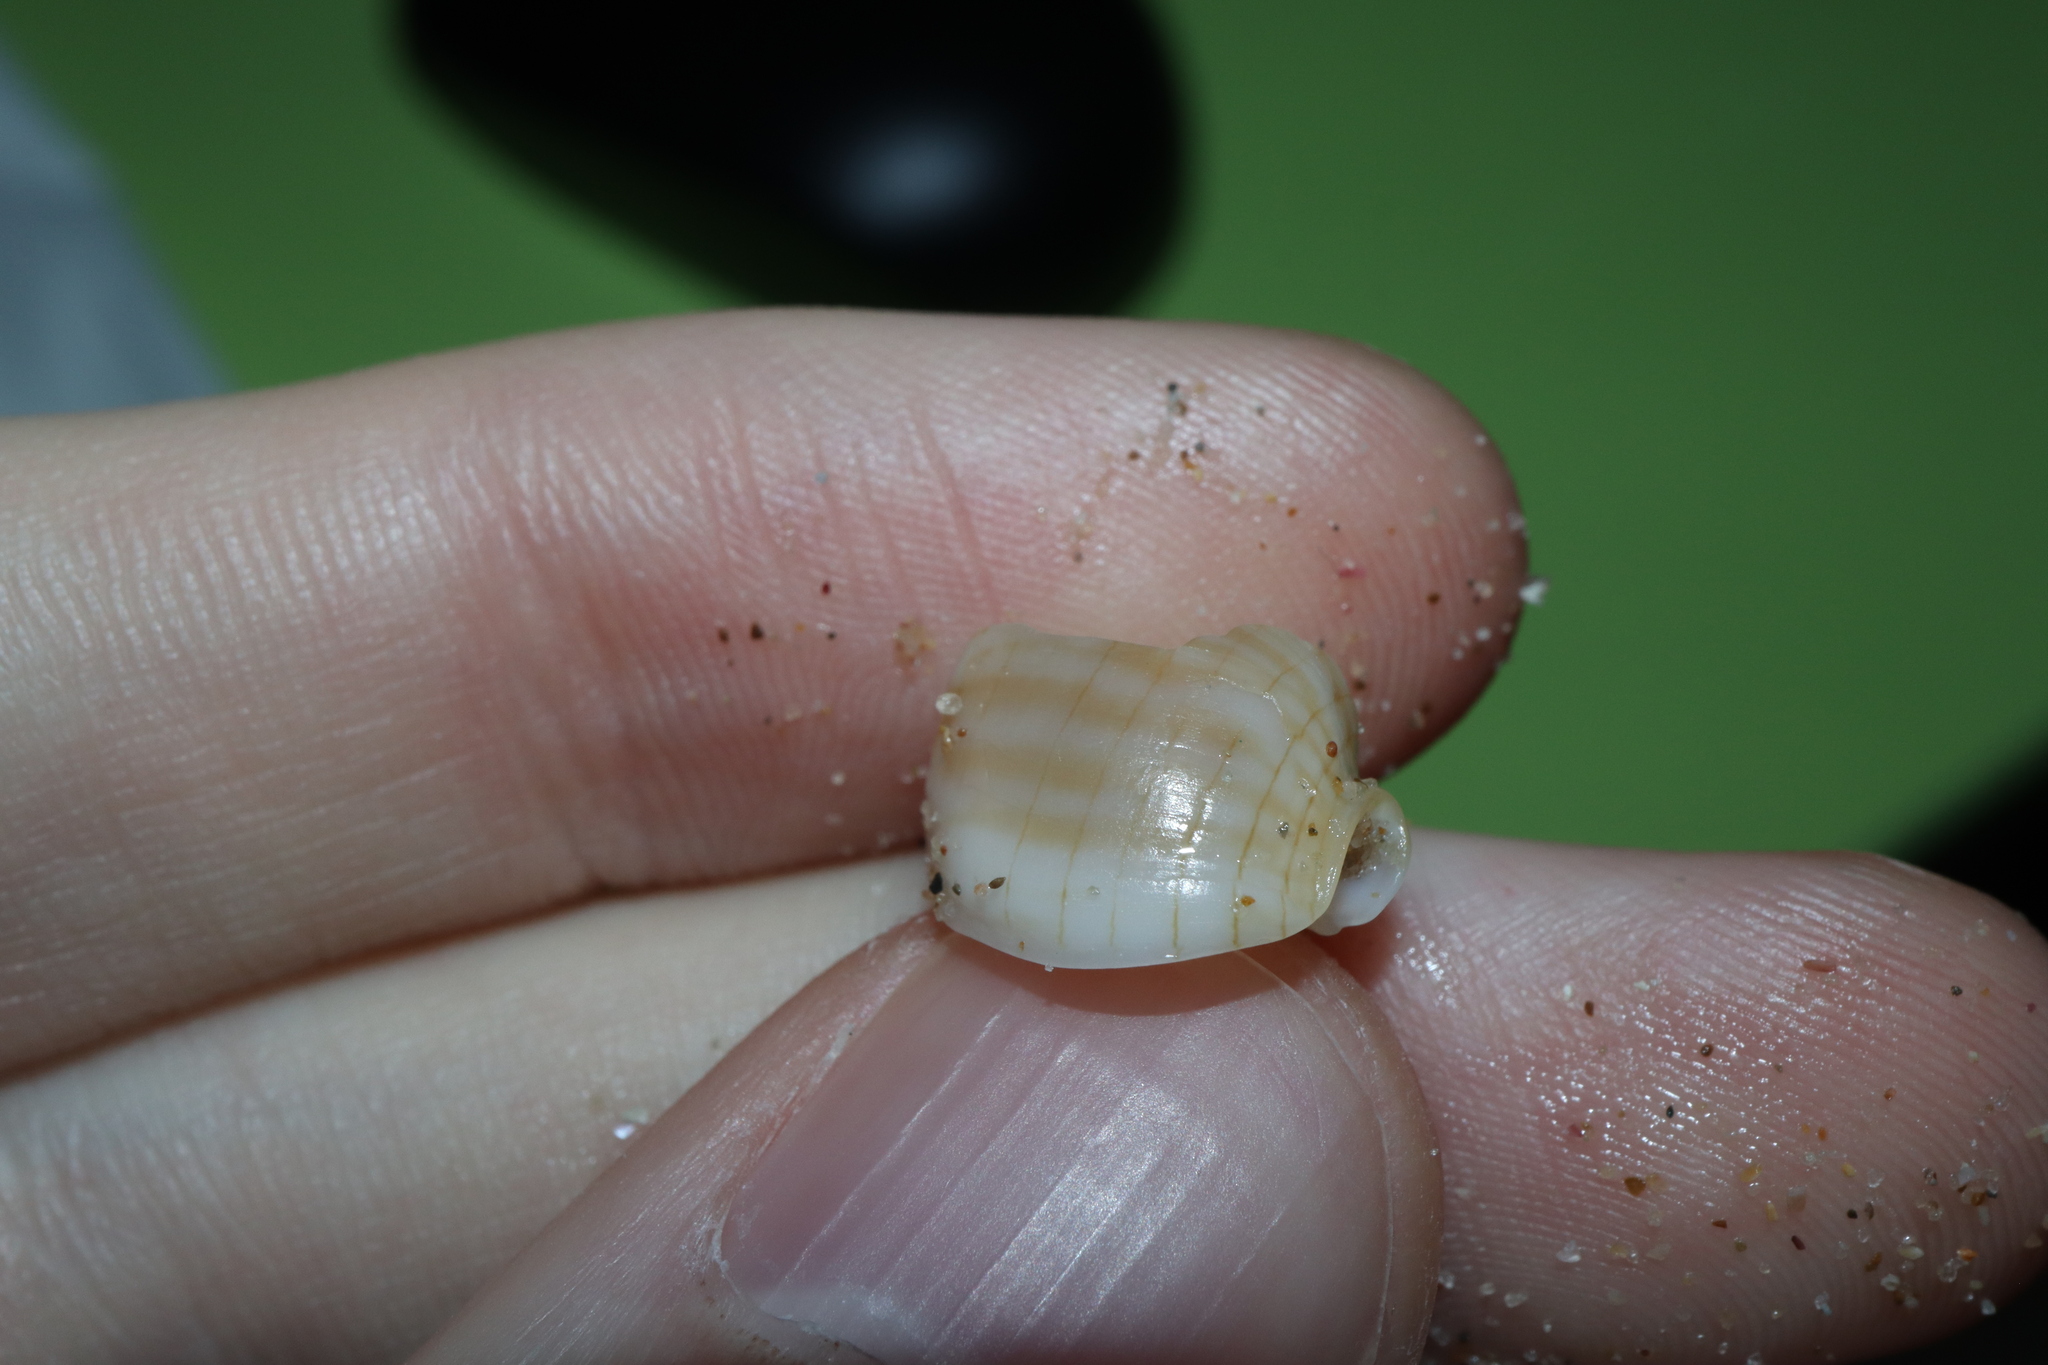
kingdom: Animalia
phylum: Mollusca
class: Gastropoda
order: Neogastropoda
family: Nassariidae
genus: Nassarius
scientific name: Nassarius particeps
